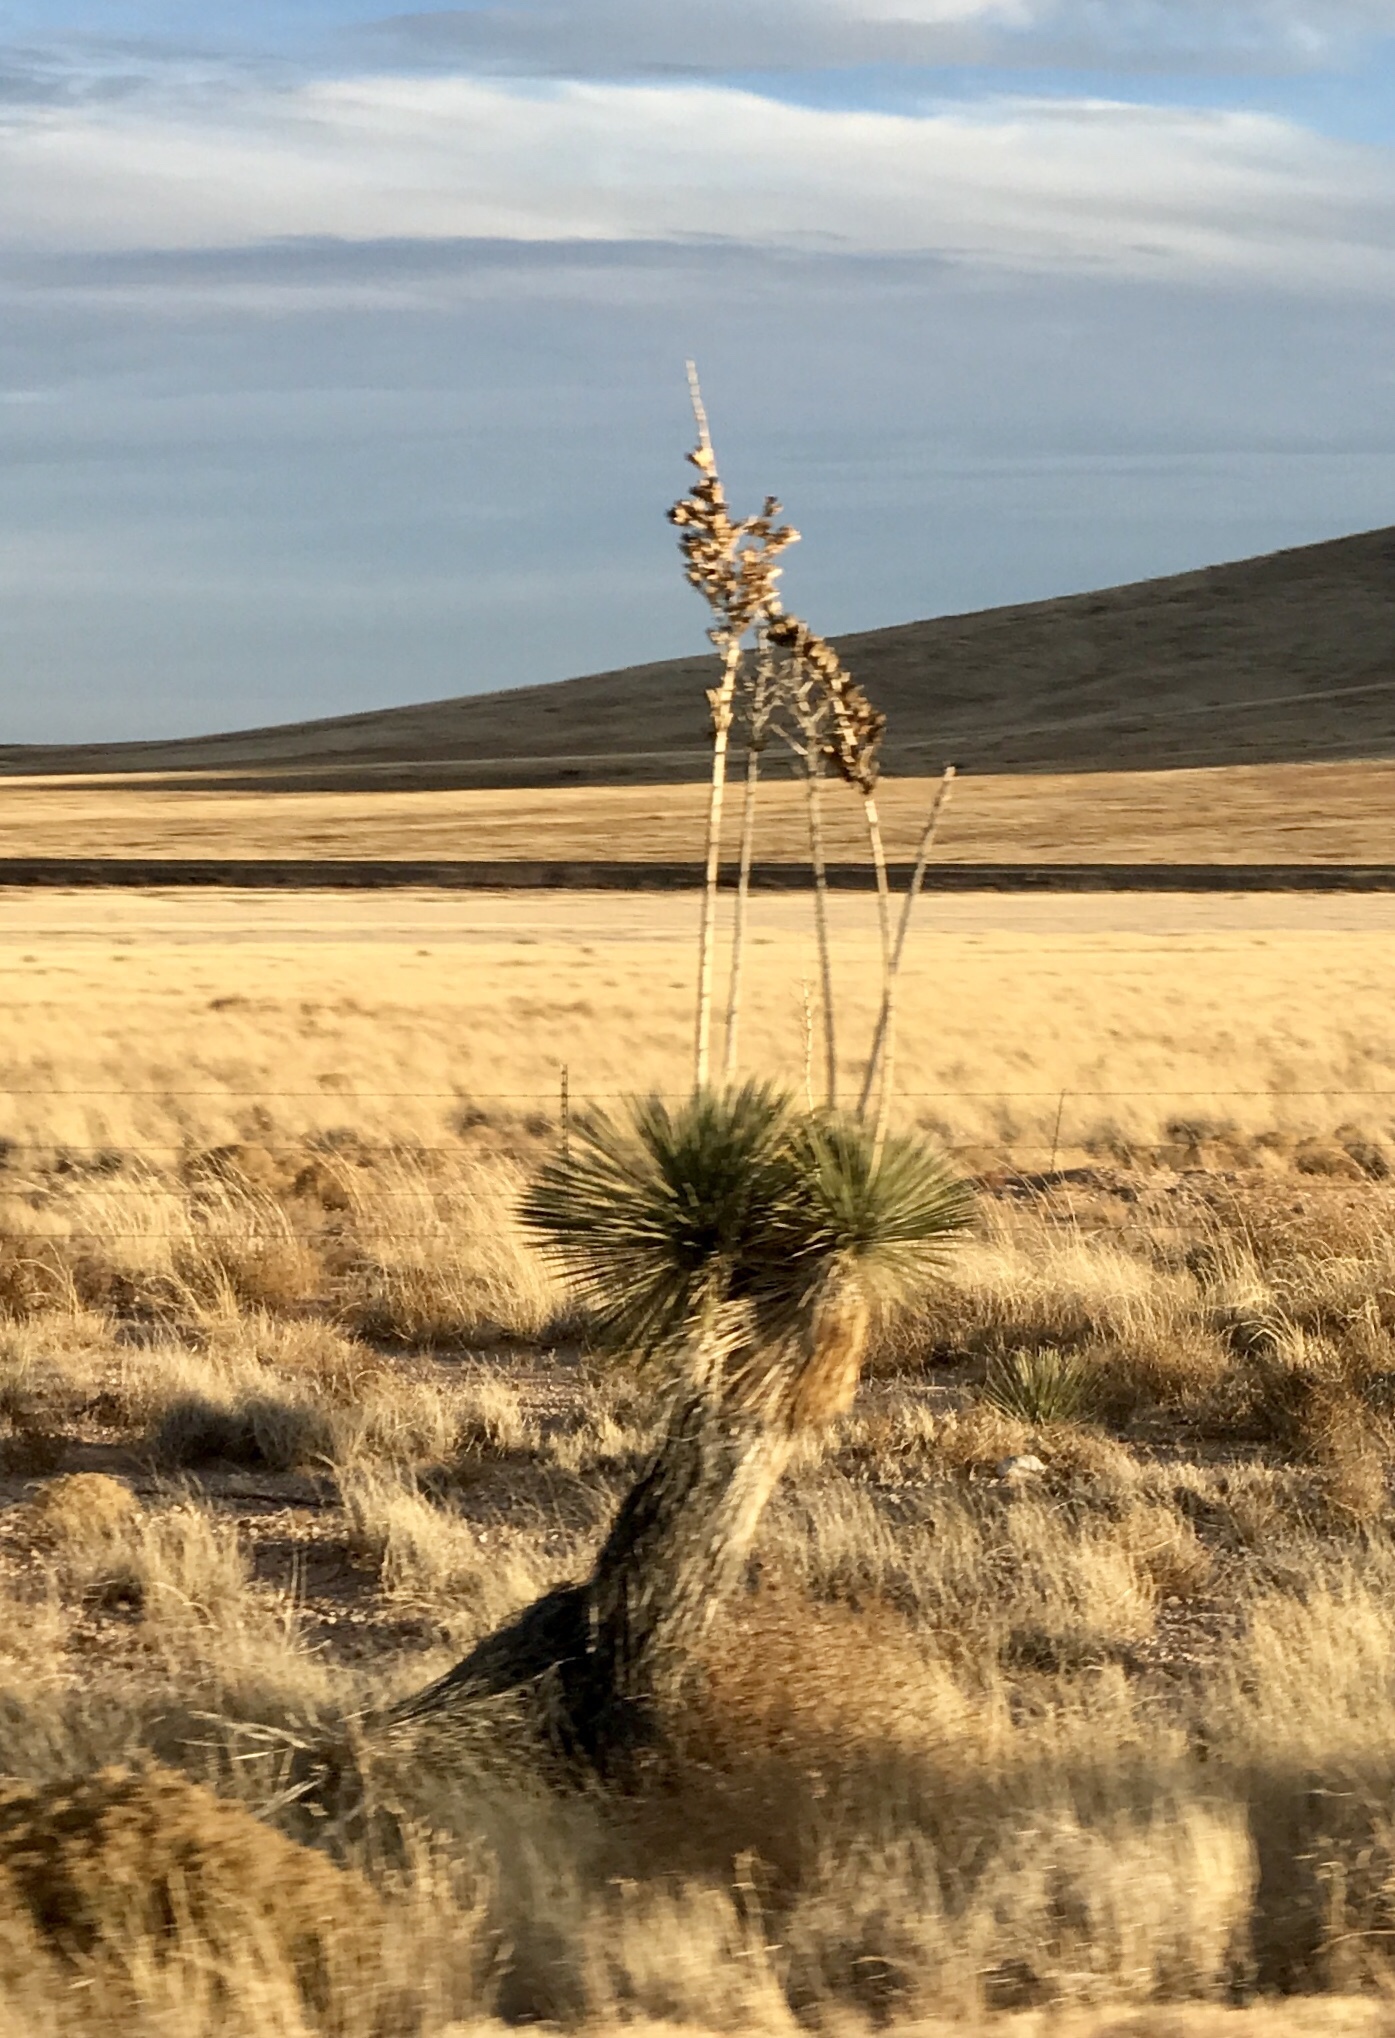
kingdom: Plantae
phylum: Tracheophyta
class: Liliopsida
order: Asparagales
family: Asparagaceae
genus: Yucca
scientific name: Yucca elata
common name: Palmella
